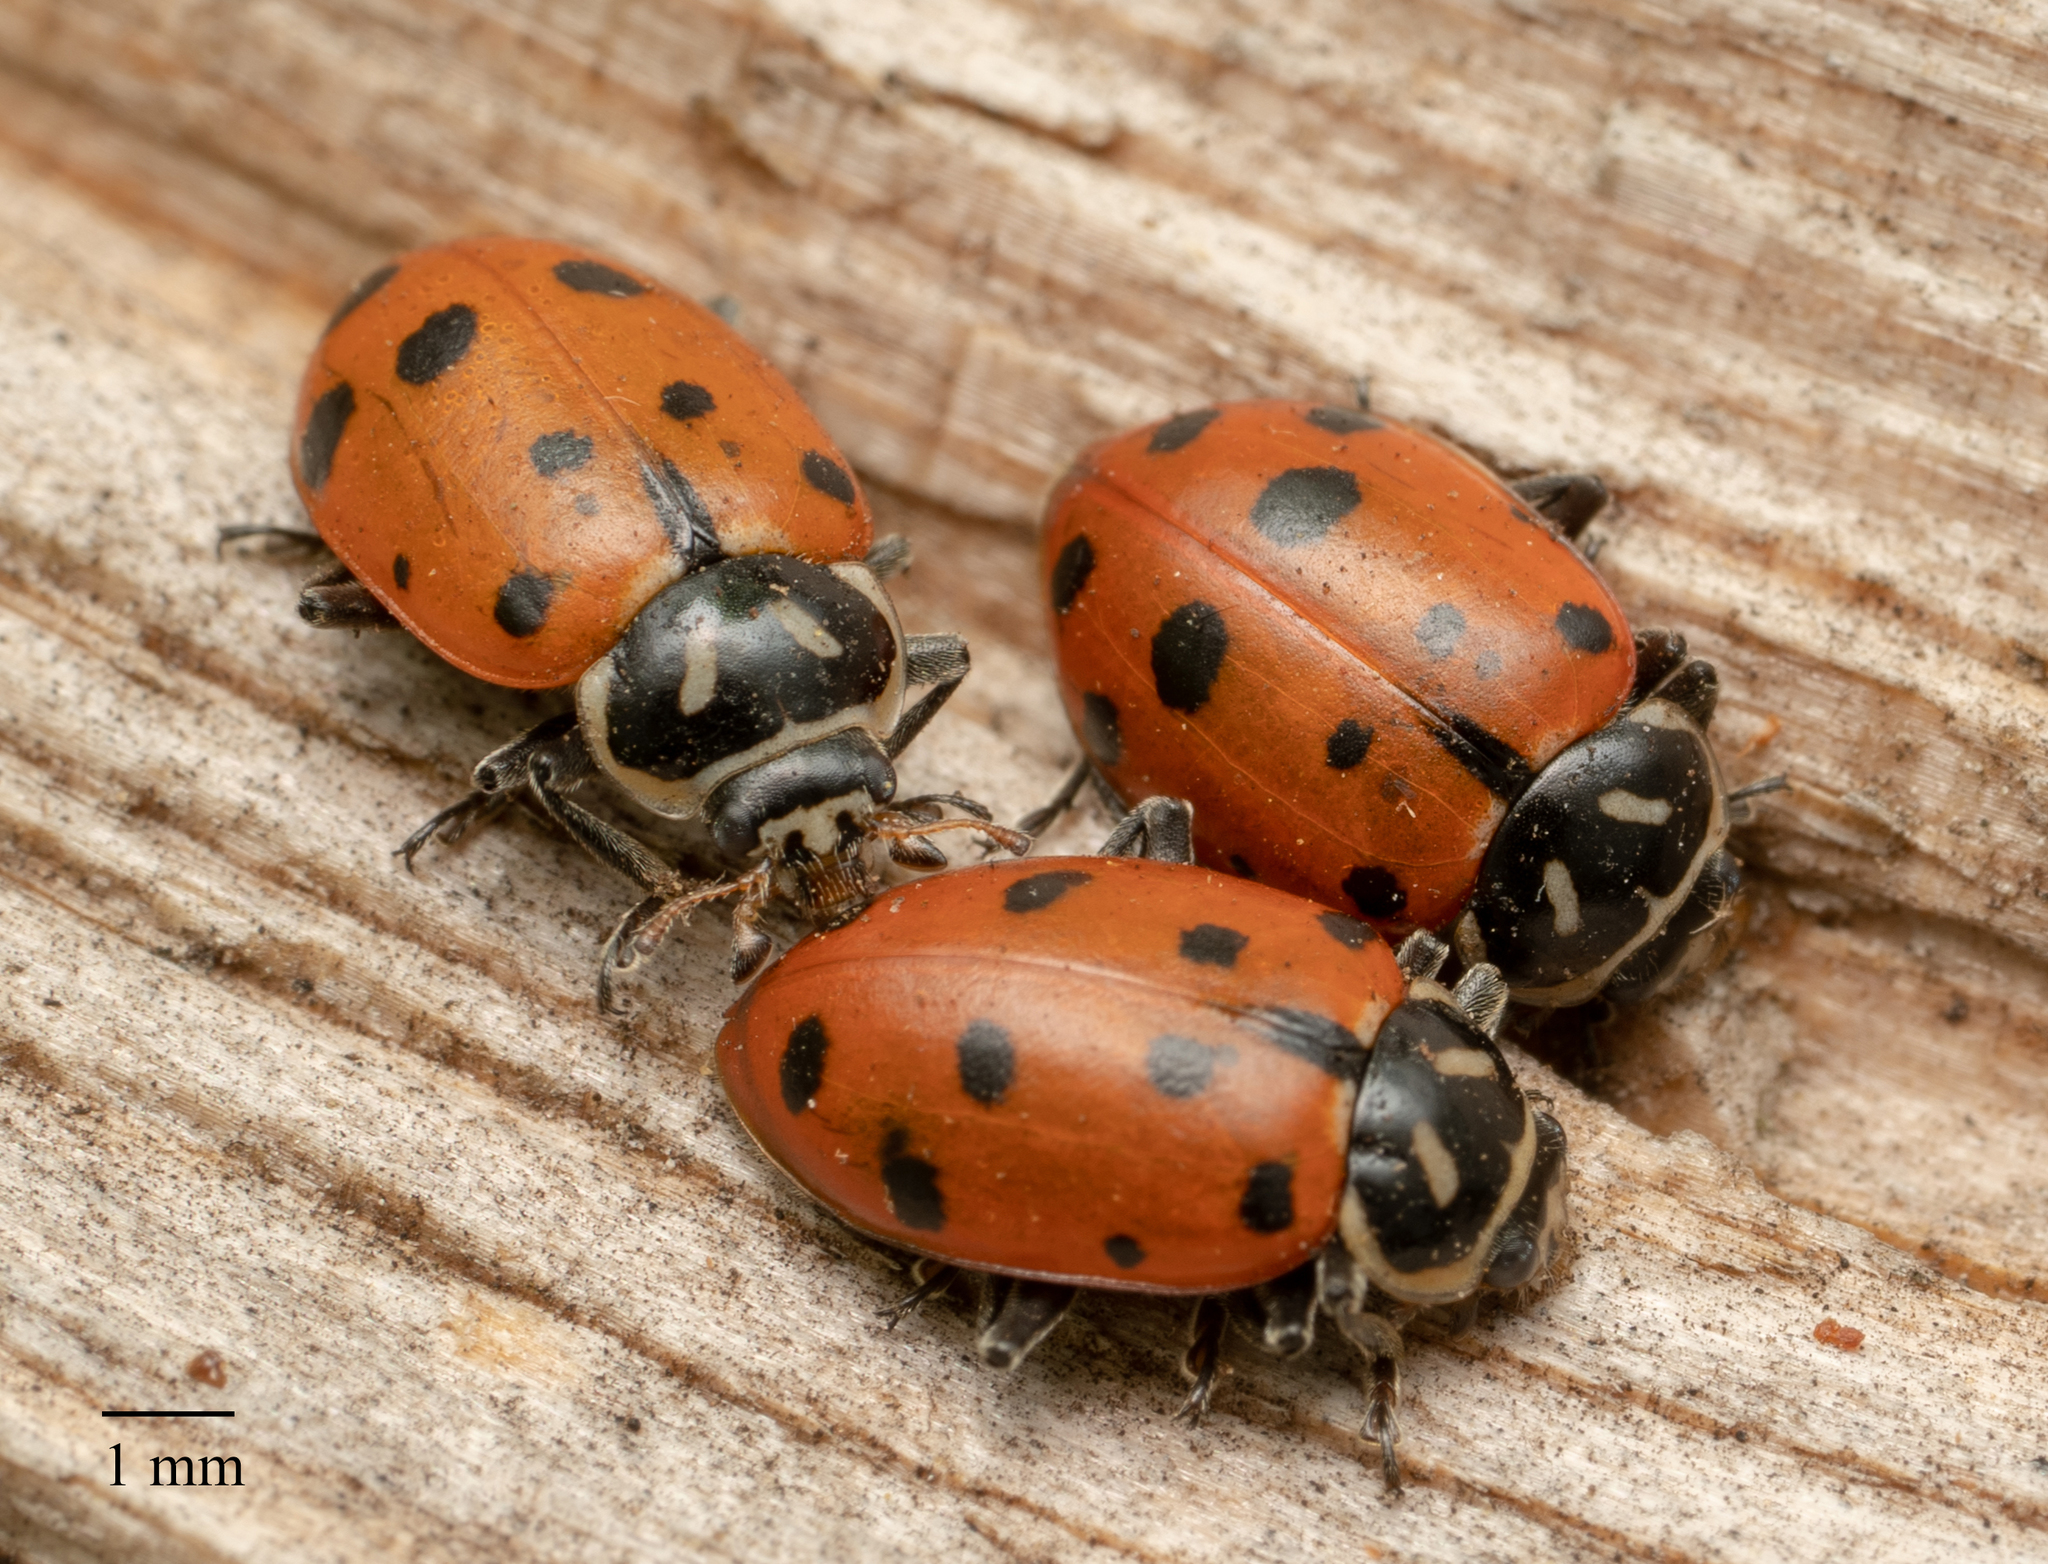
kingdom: Animalia
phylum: Arthropoda
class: Insecta
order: Coleoptera
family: Coccinellidae
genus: Hippodamia
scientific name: Hippodamia convergens
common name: Convergent lady beetle
